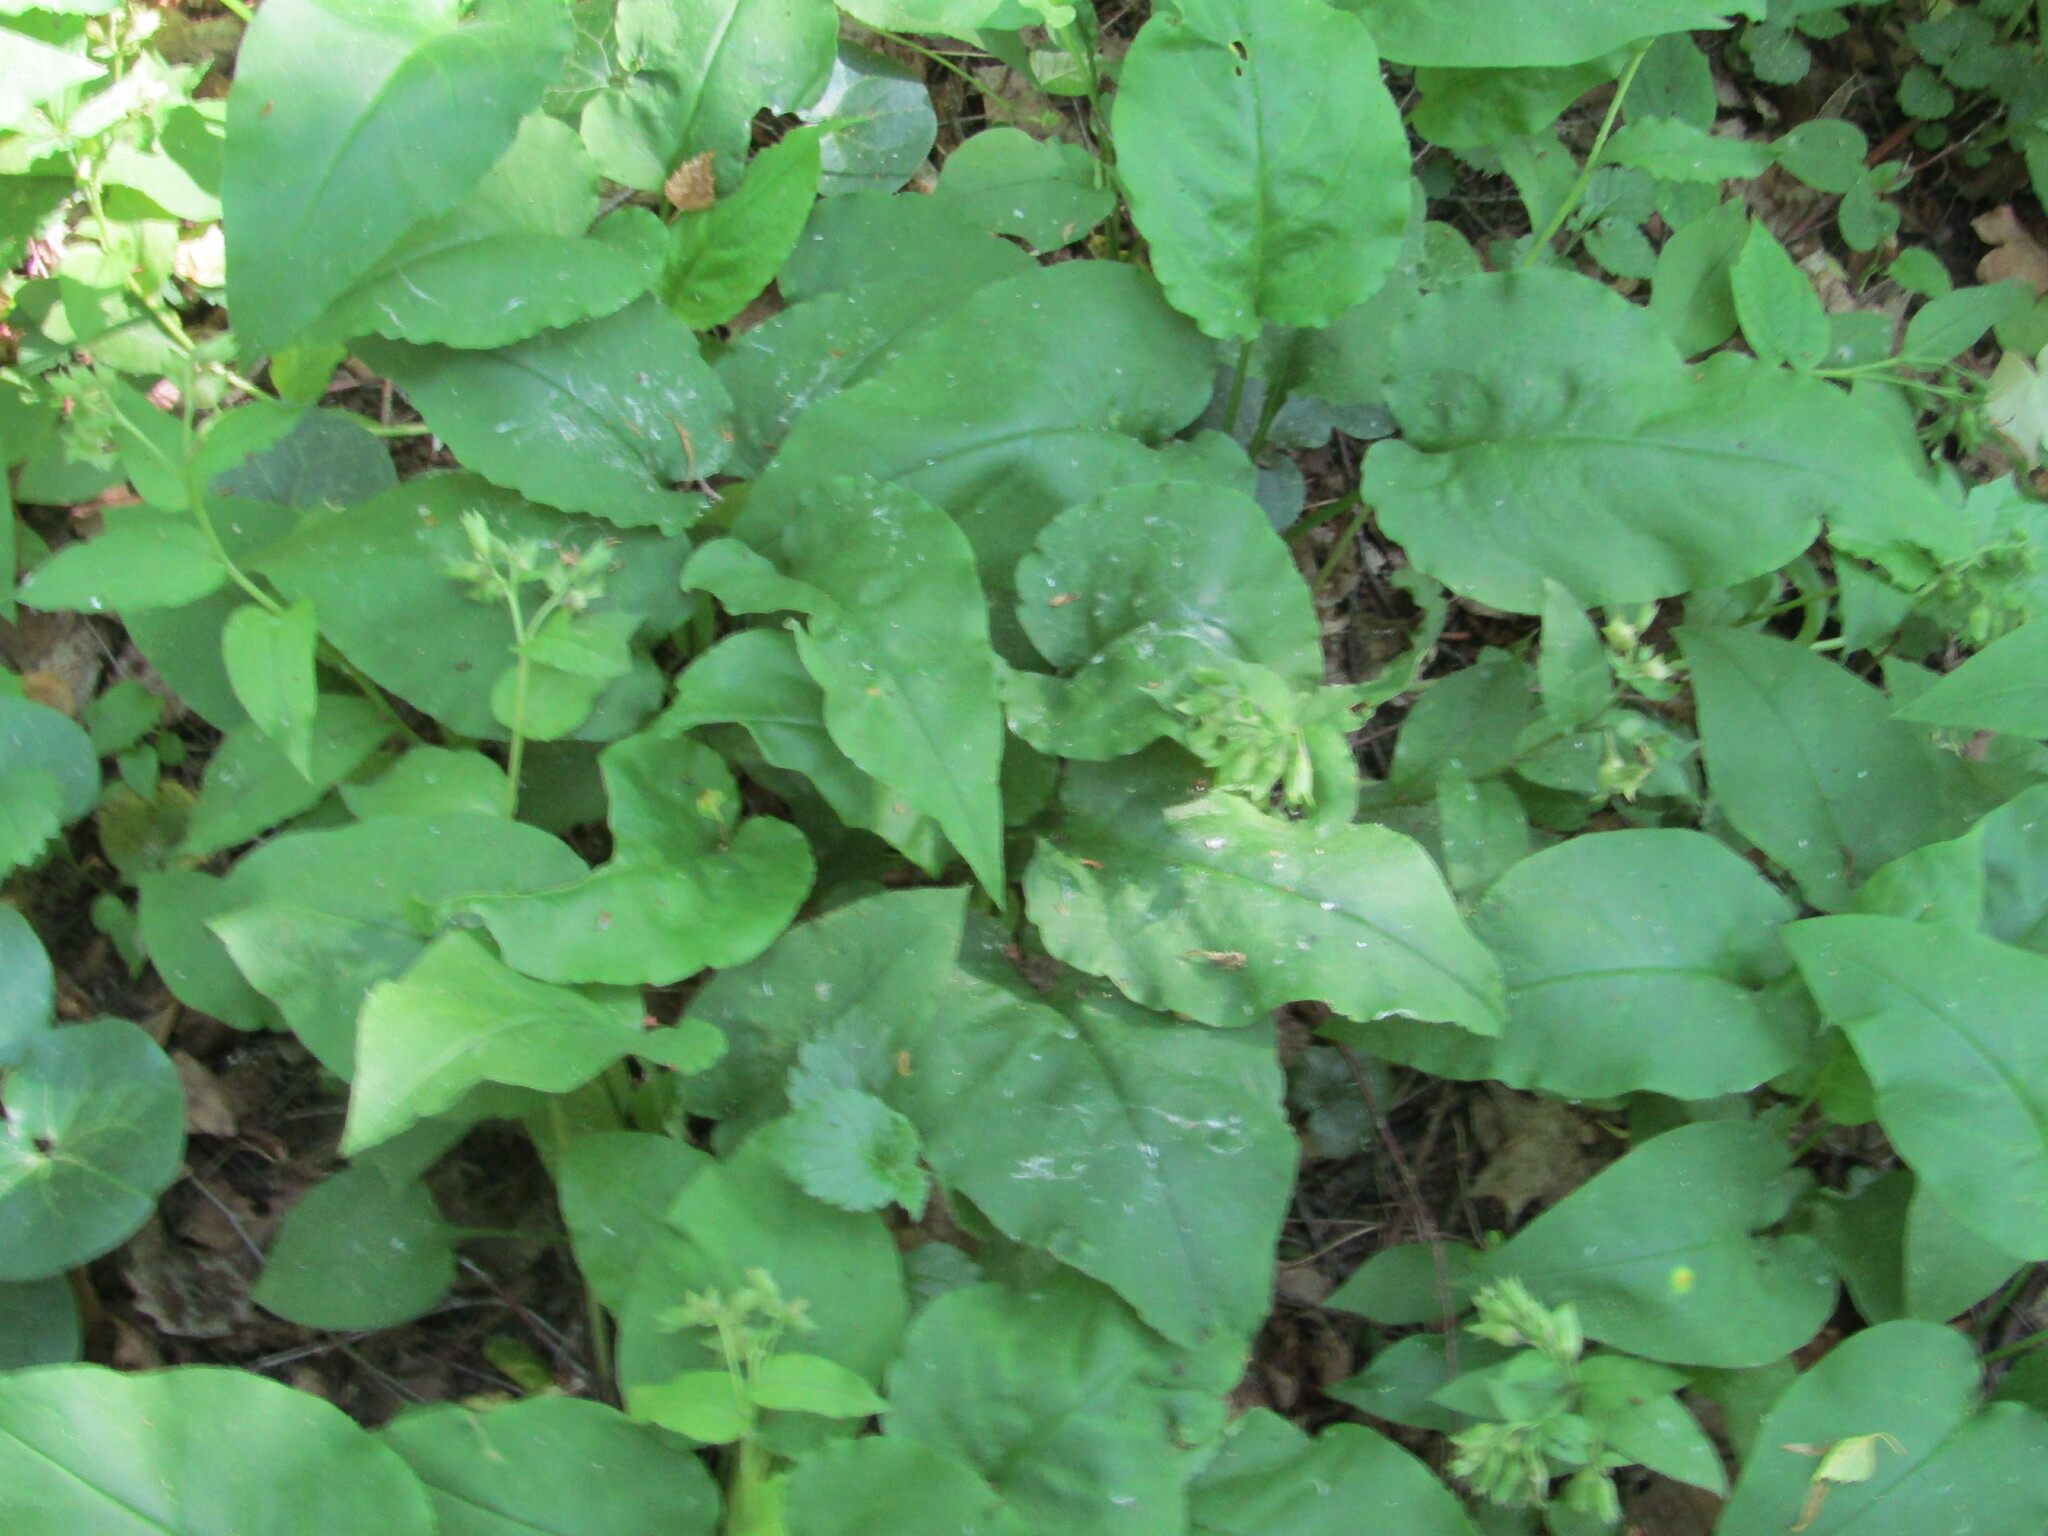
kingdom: Plantae
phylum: Tracheophyta
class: Magnoliopsida
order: Boraginales
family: Boraginaceae
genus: Pulmonaria
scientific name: Pulmonaria obscura
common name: Suffolk lungwort
